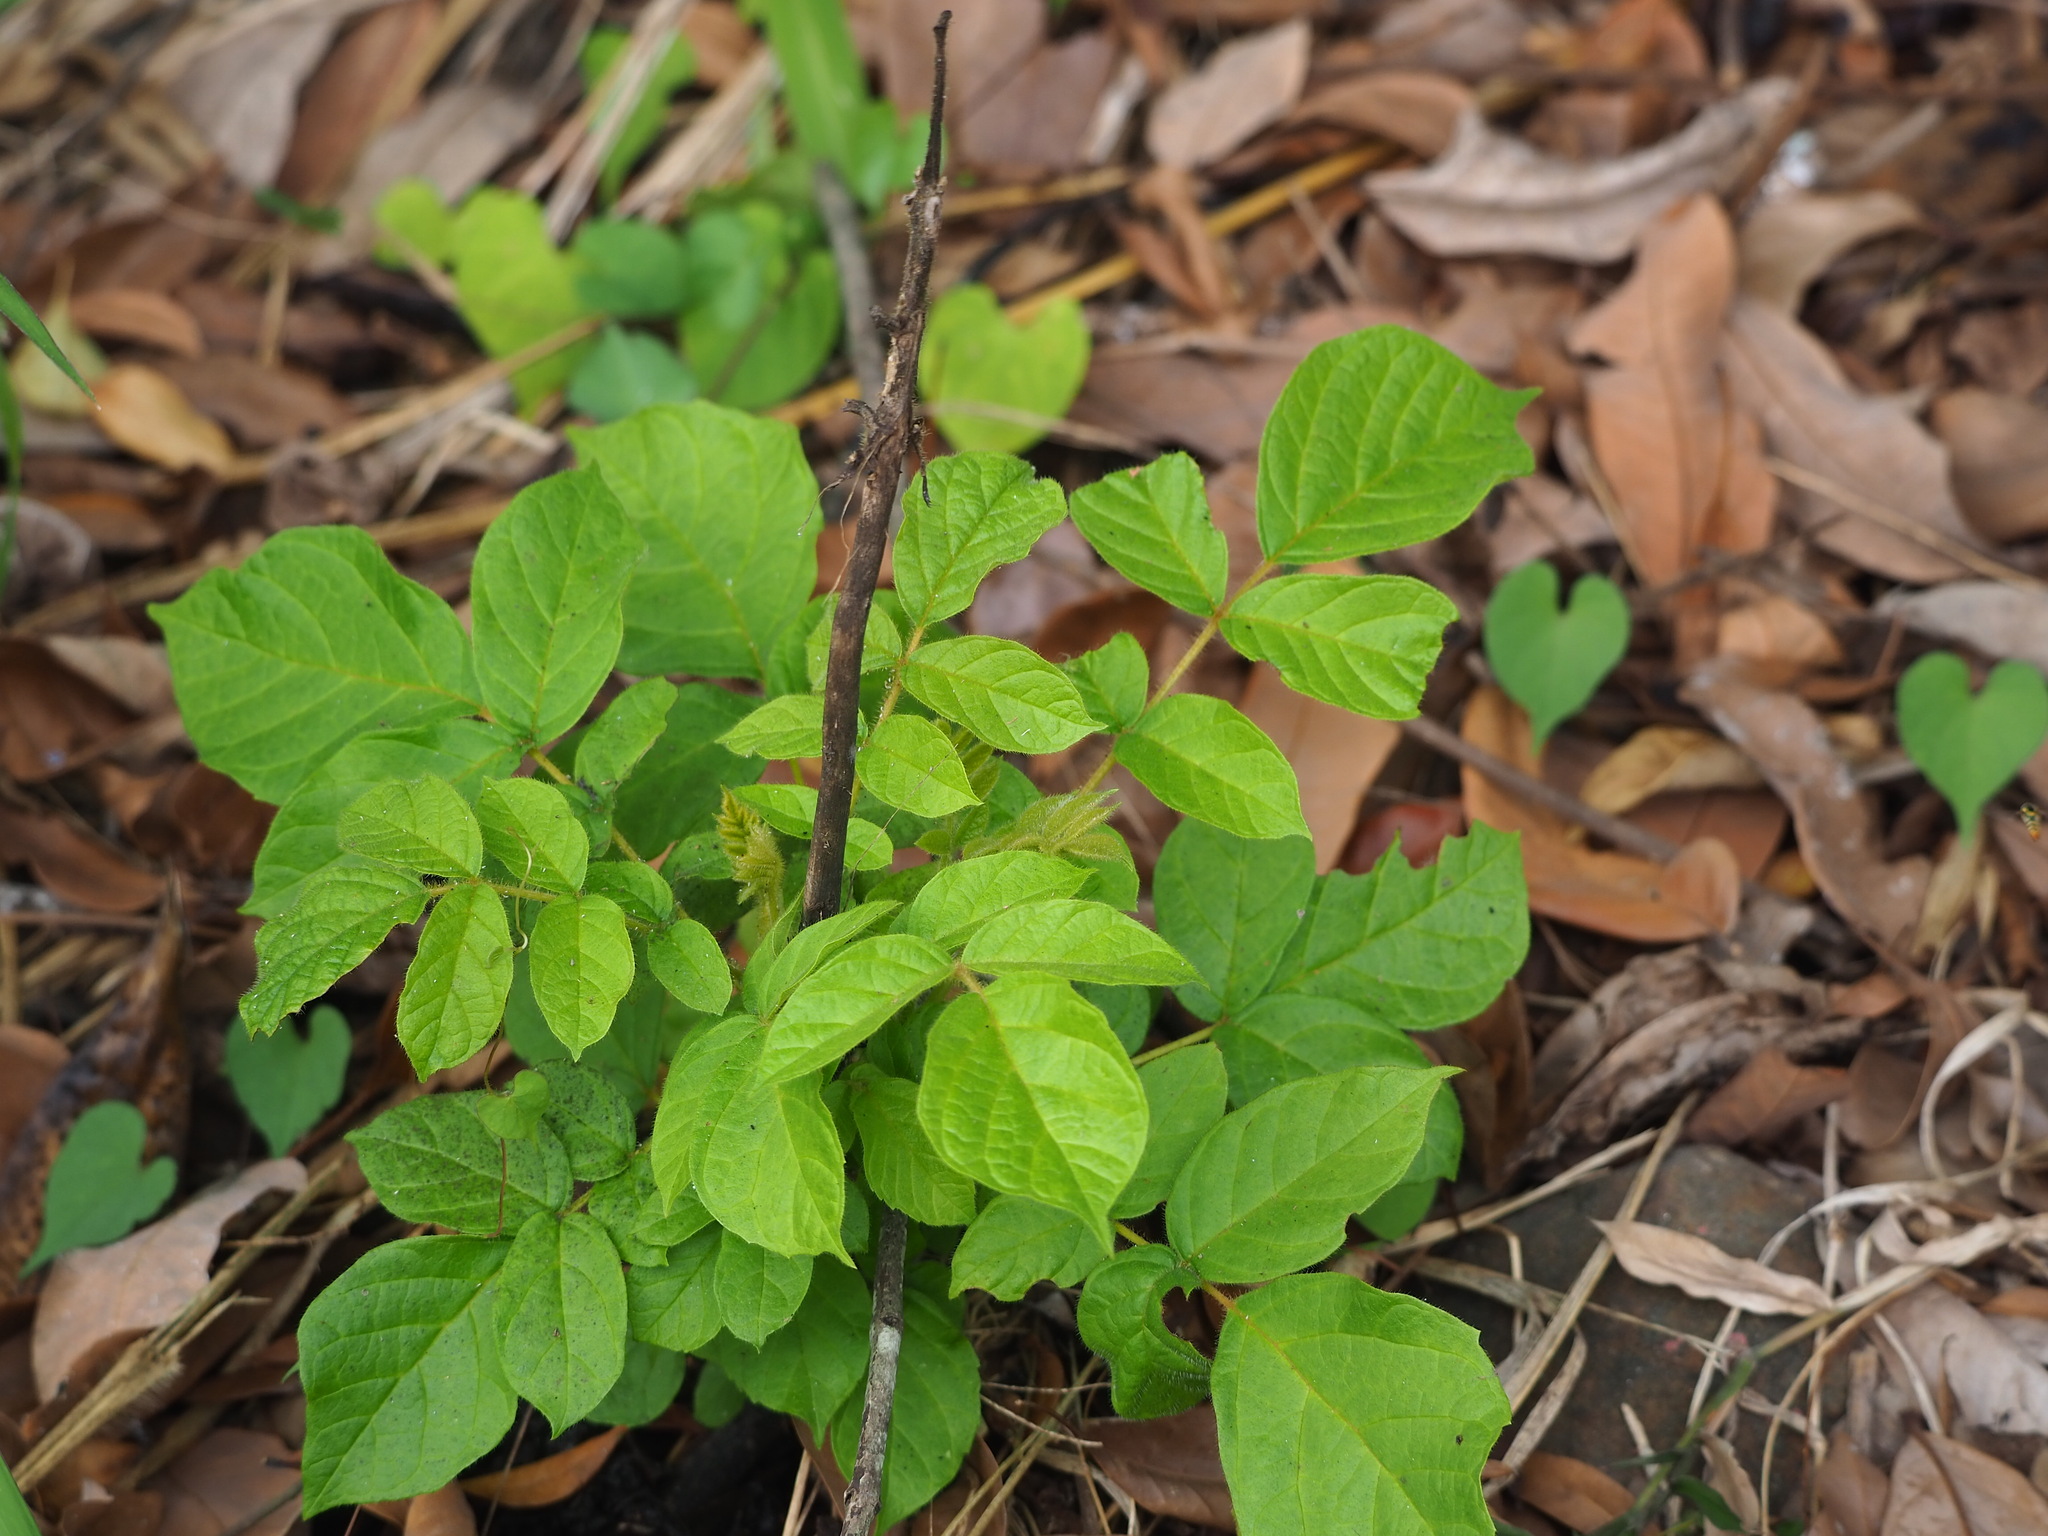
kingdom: Plantae
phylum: Tracheophyta
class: Magnoliopsida
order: Lamiales
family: Bignoniaceae
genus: Spathodea
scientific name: Spathodea campanulata
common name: African tuliptree
